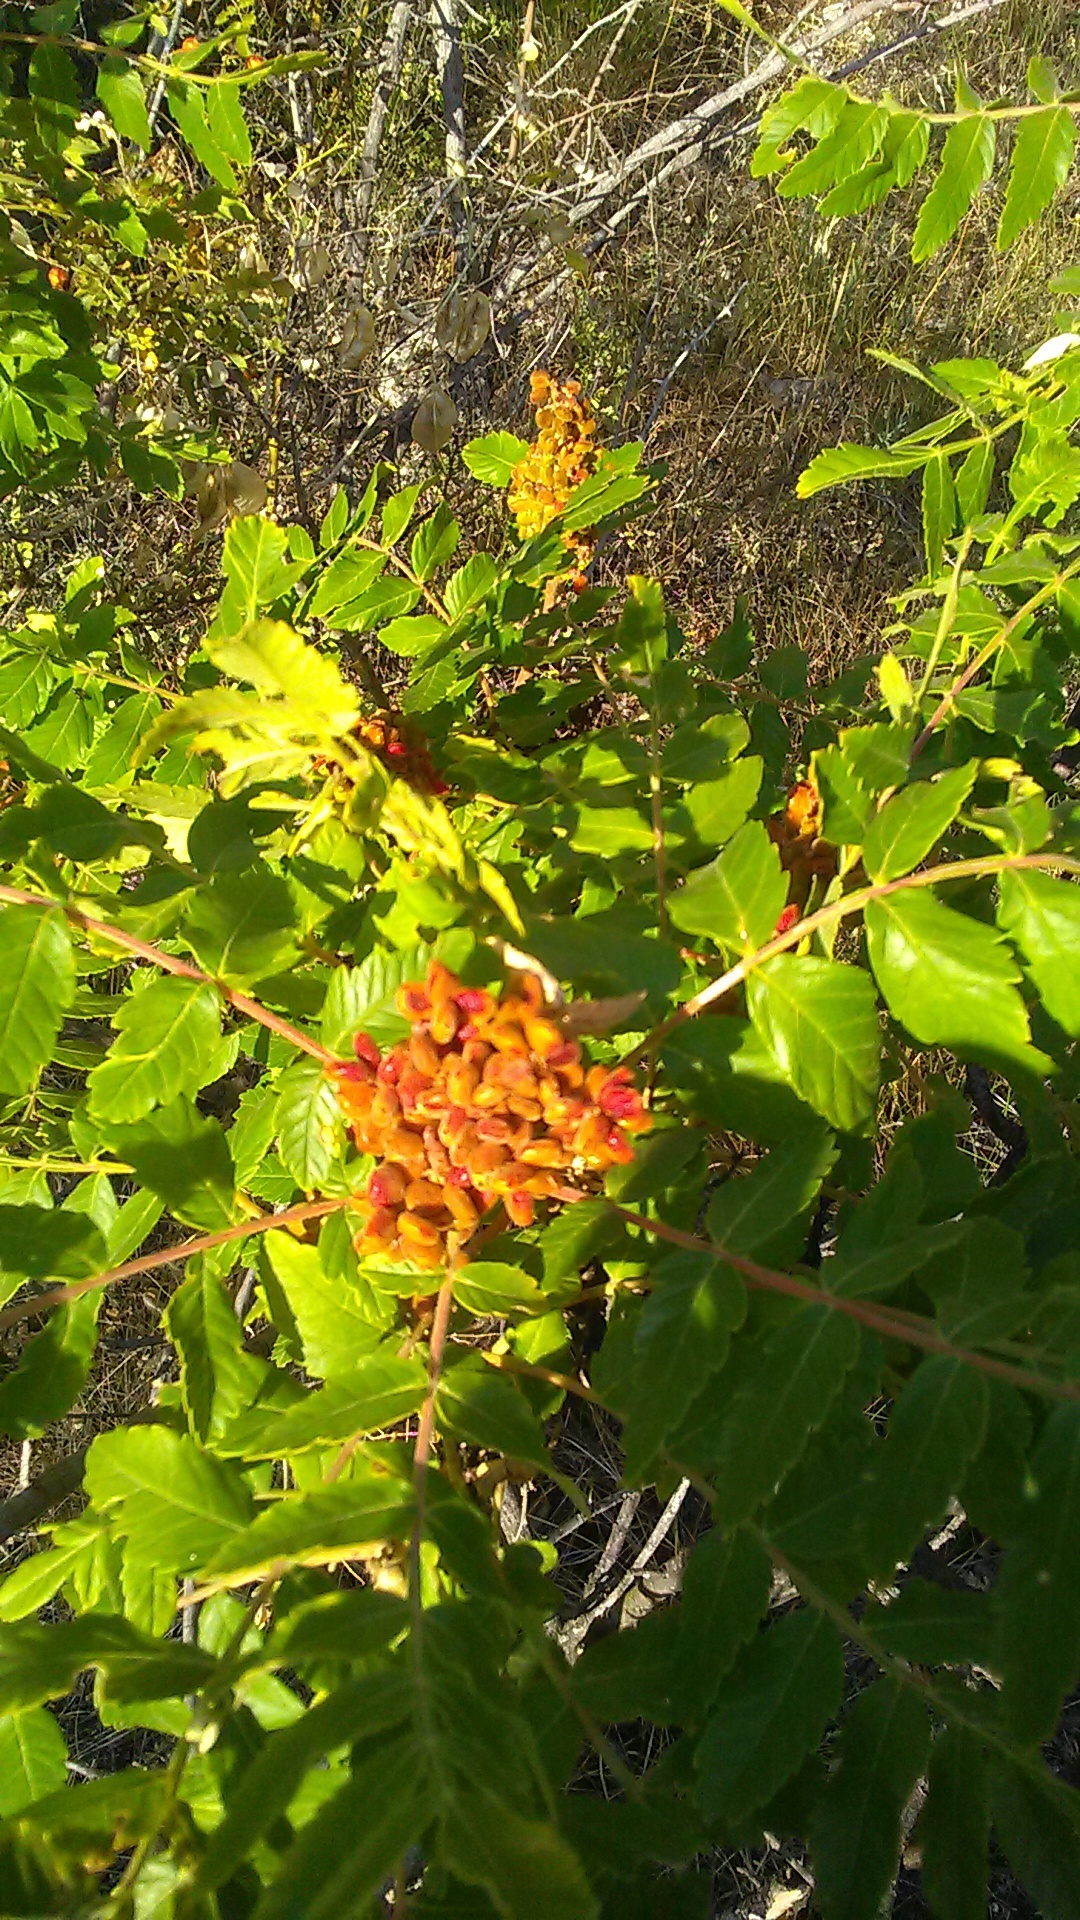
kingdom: Plantae
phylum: Tracheophyta
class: Magnoliopsida
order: Sapindales
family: Anacardiaceae
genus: Rhus
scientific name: Rhus coriaria
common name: Tanner's sumach
